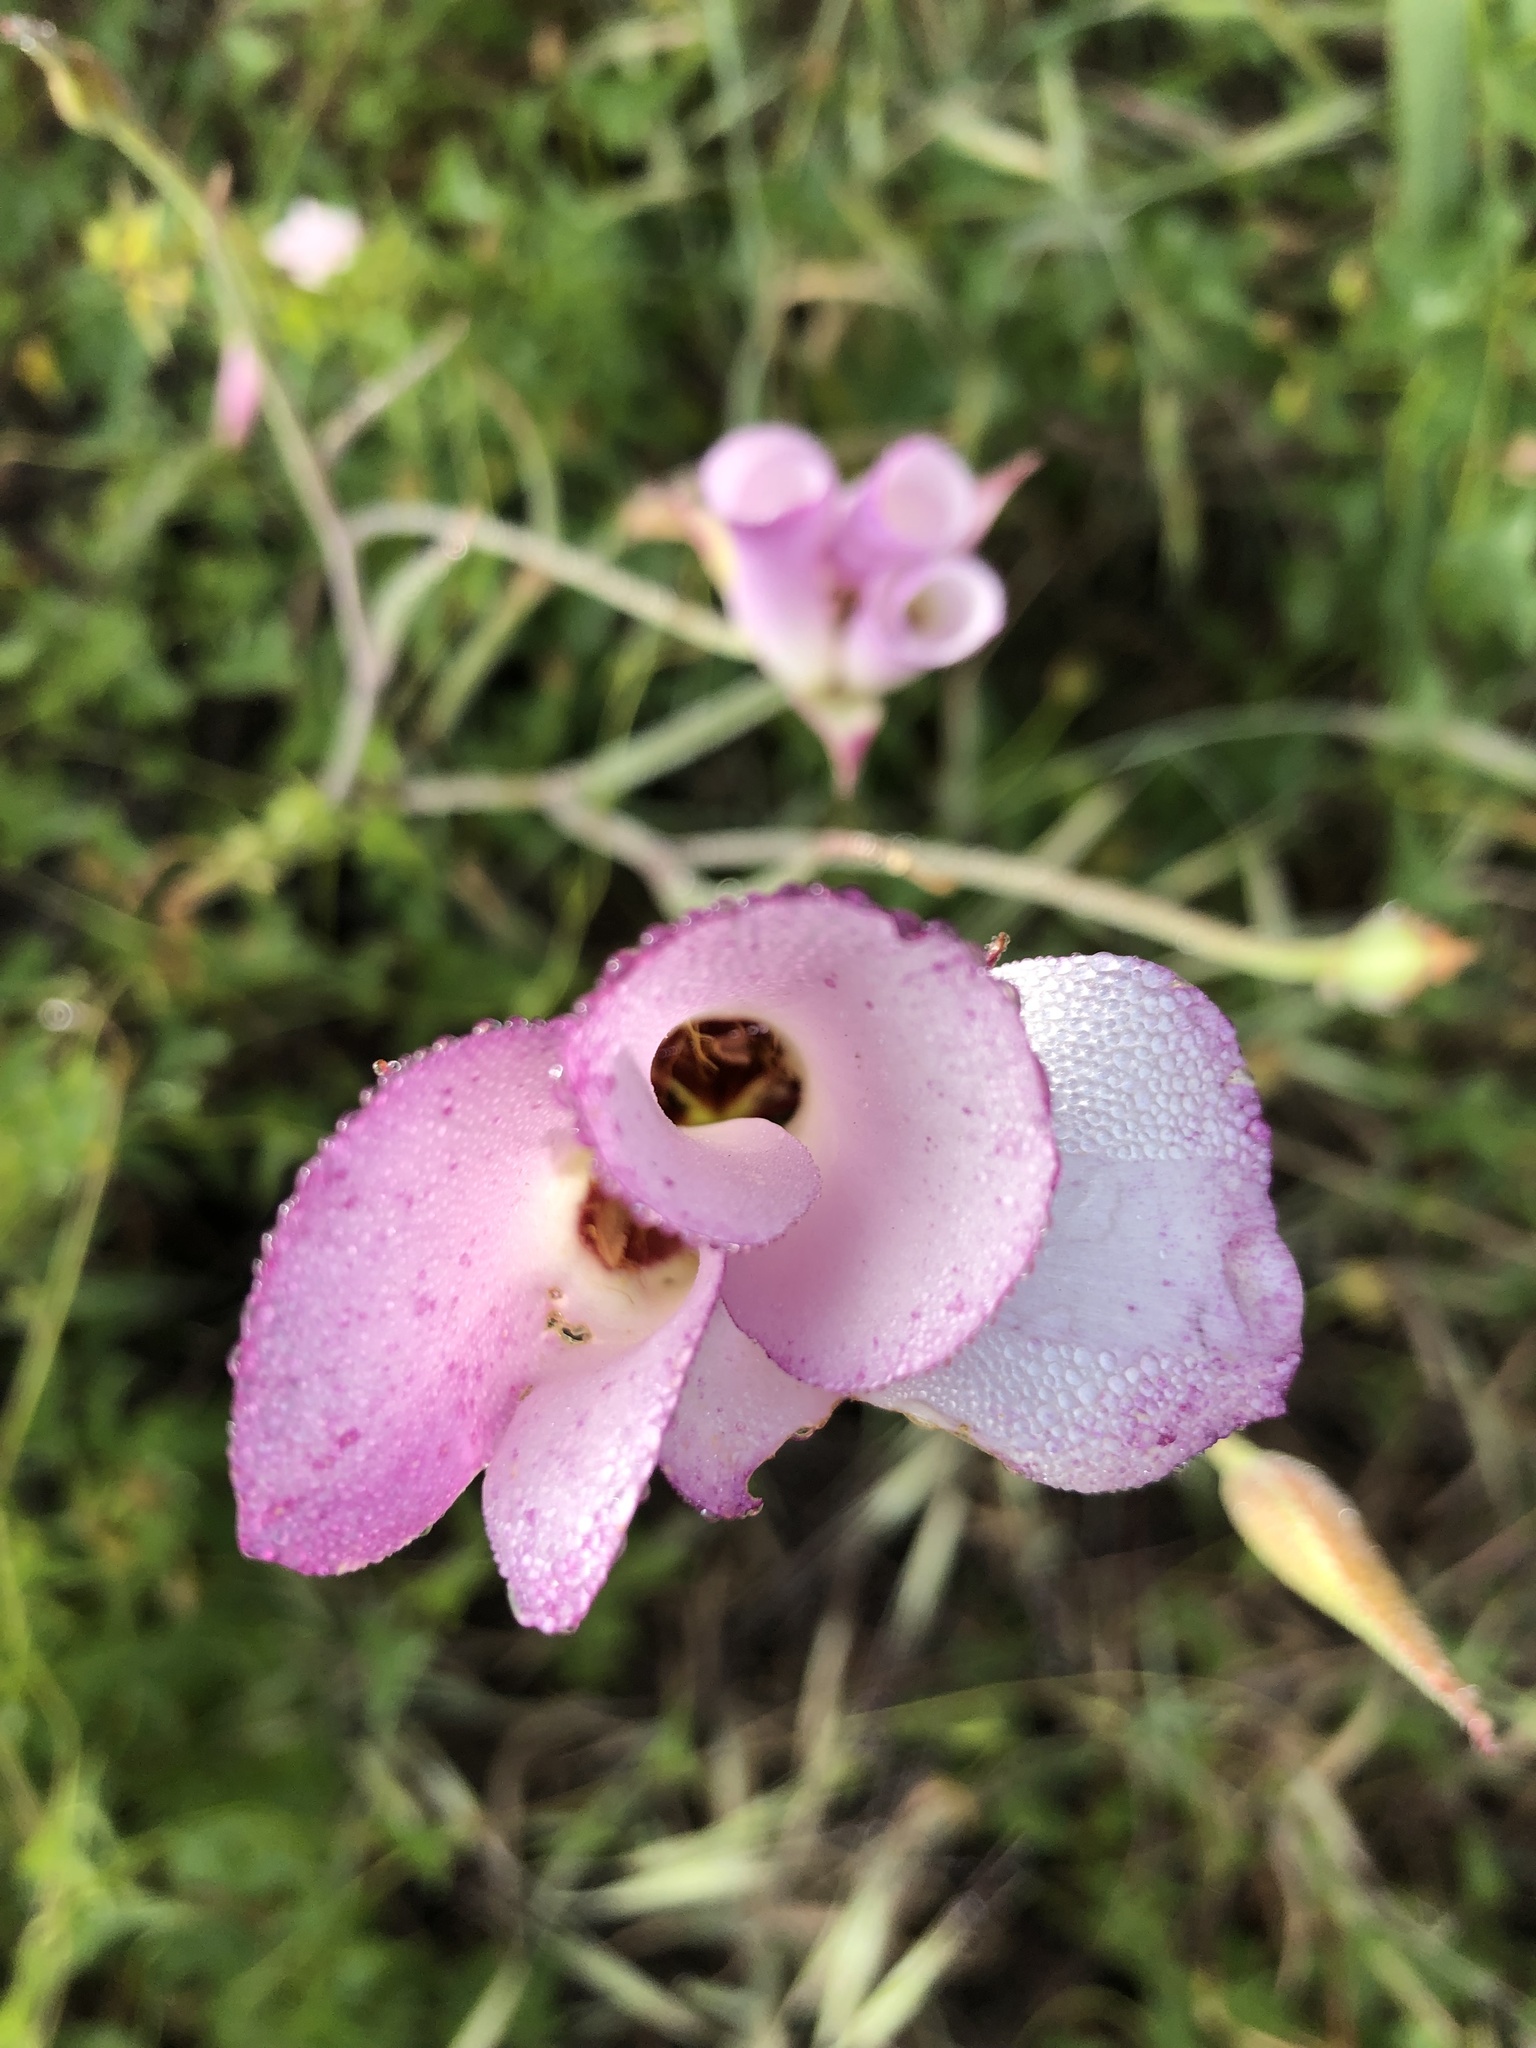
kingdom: Plantae
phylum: Tracheophyta
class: Liliopsida
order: Liliales
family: Liliaceae
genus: Calochortus
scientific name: Calochortus catalinae
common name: Catalina mariposa-lily
